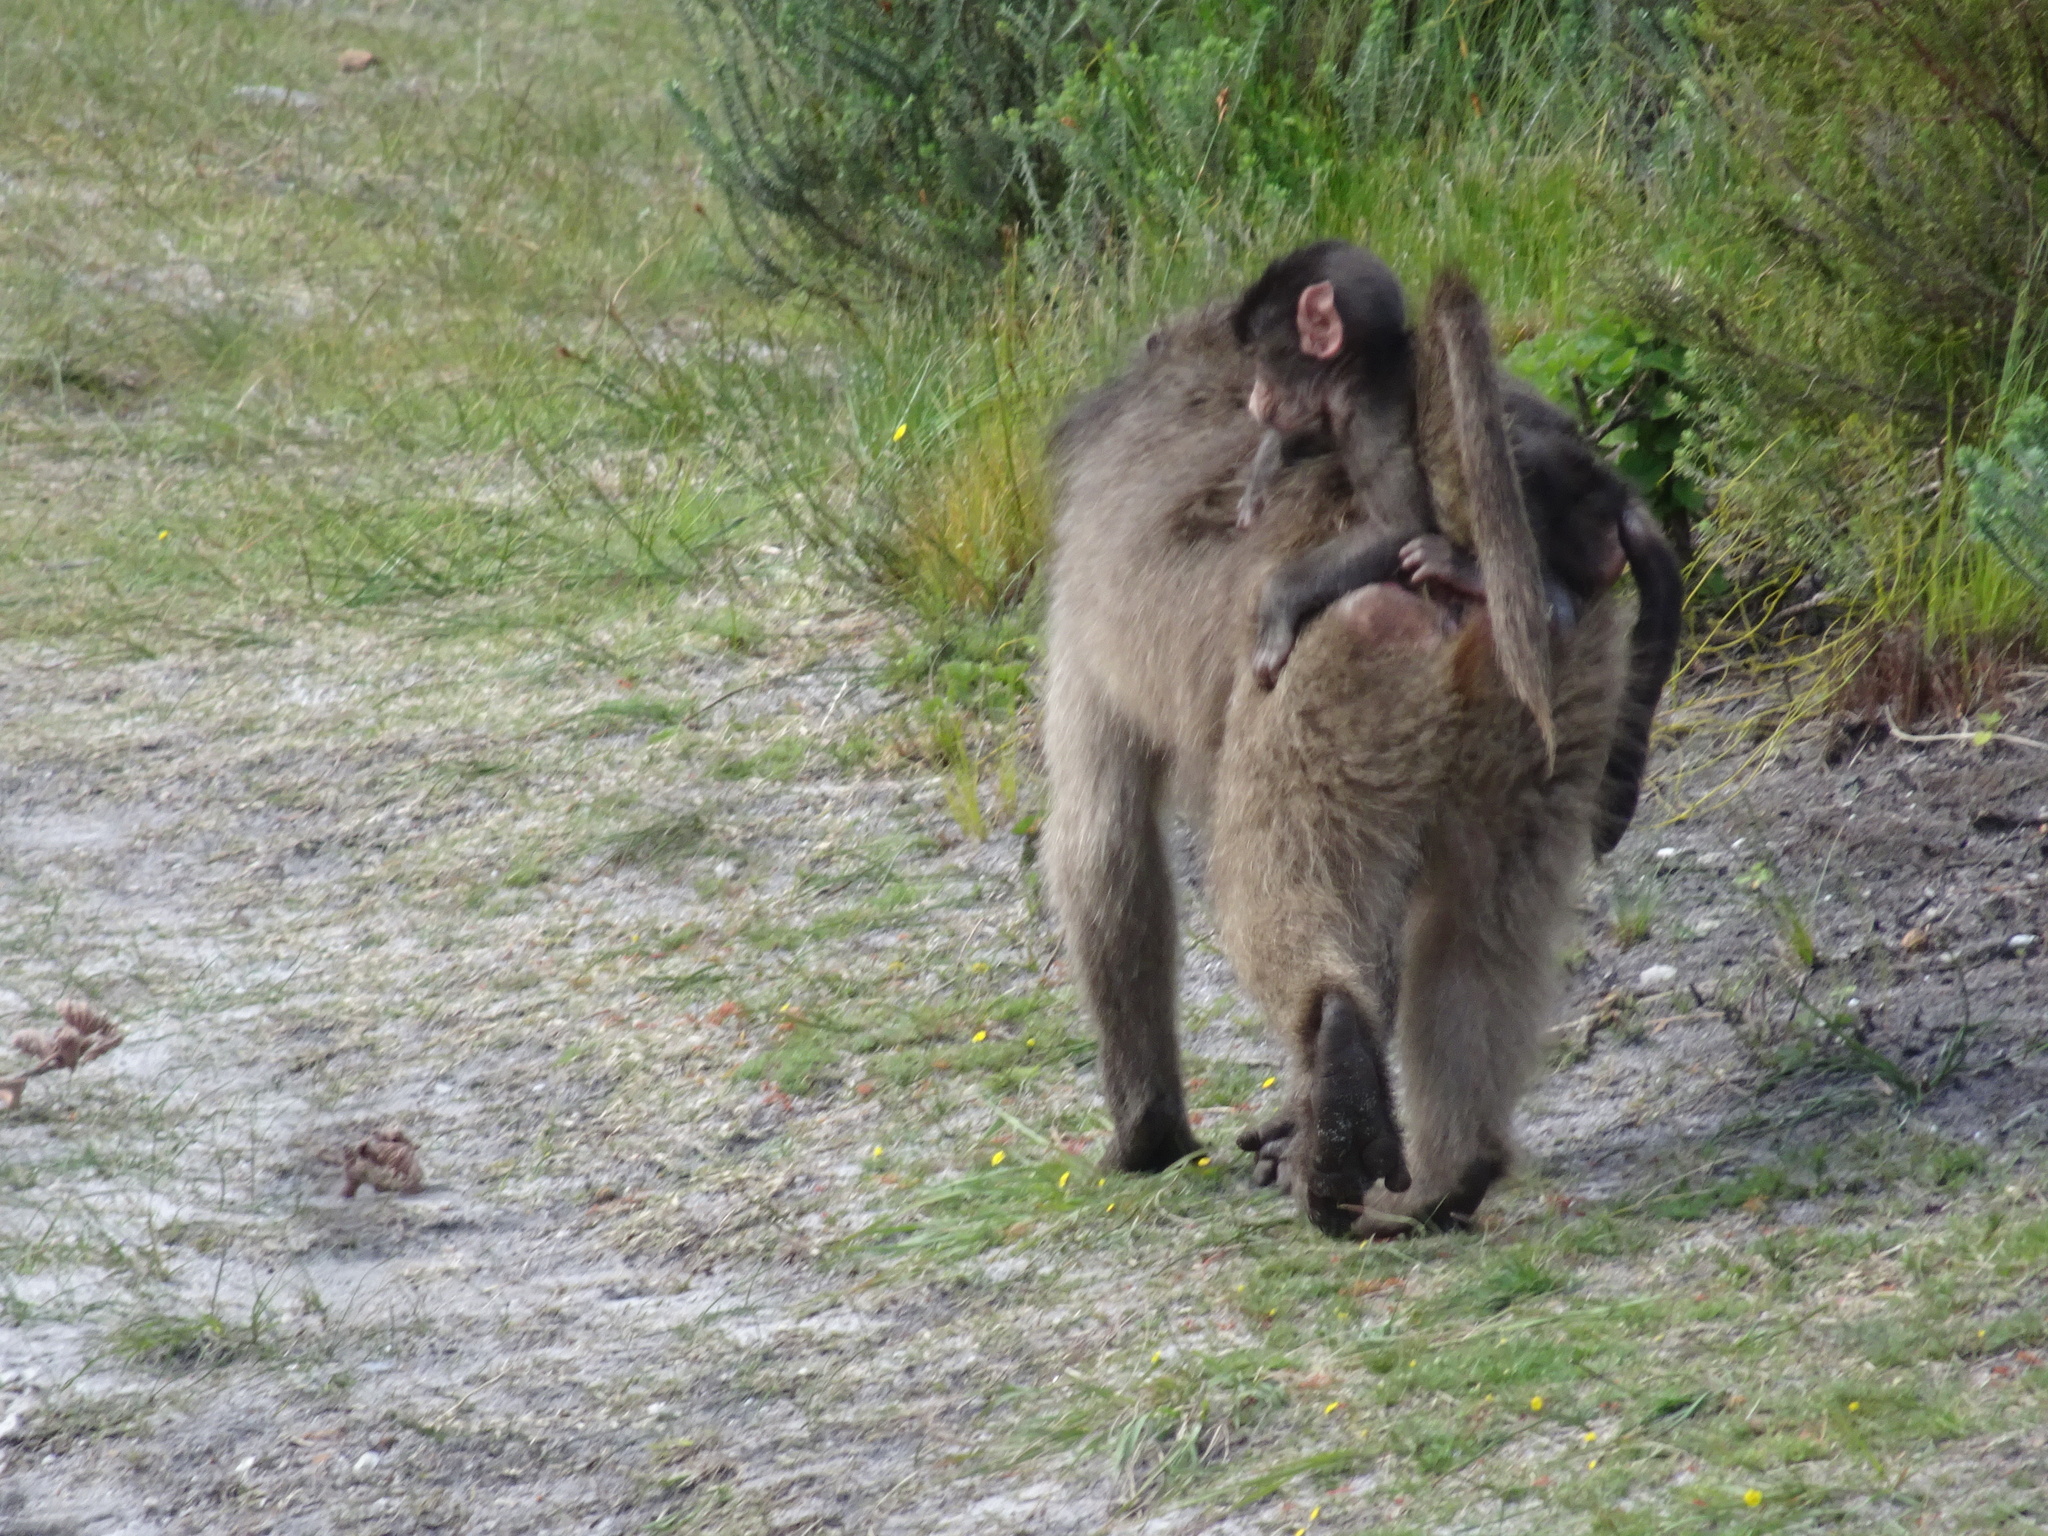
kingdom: Animalia
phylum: Chordata
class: Mammalia
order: Primates
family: Cercopithecidae
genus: Papio
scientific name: Papio ursinus
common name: Chacma baboon
